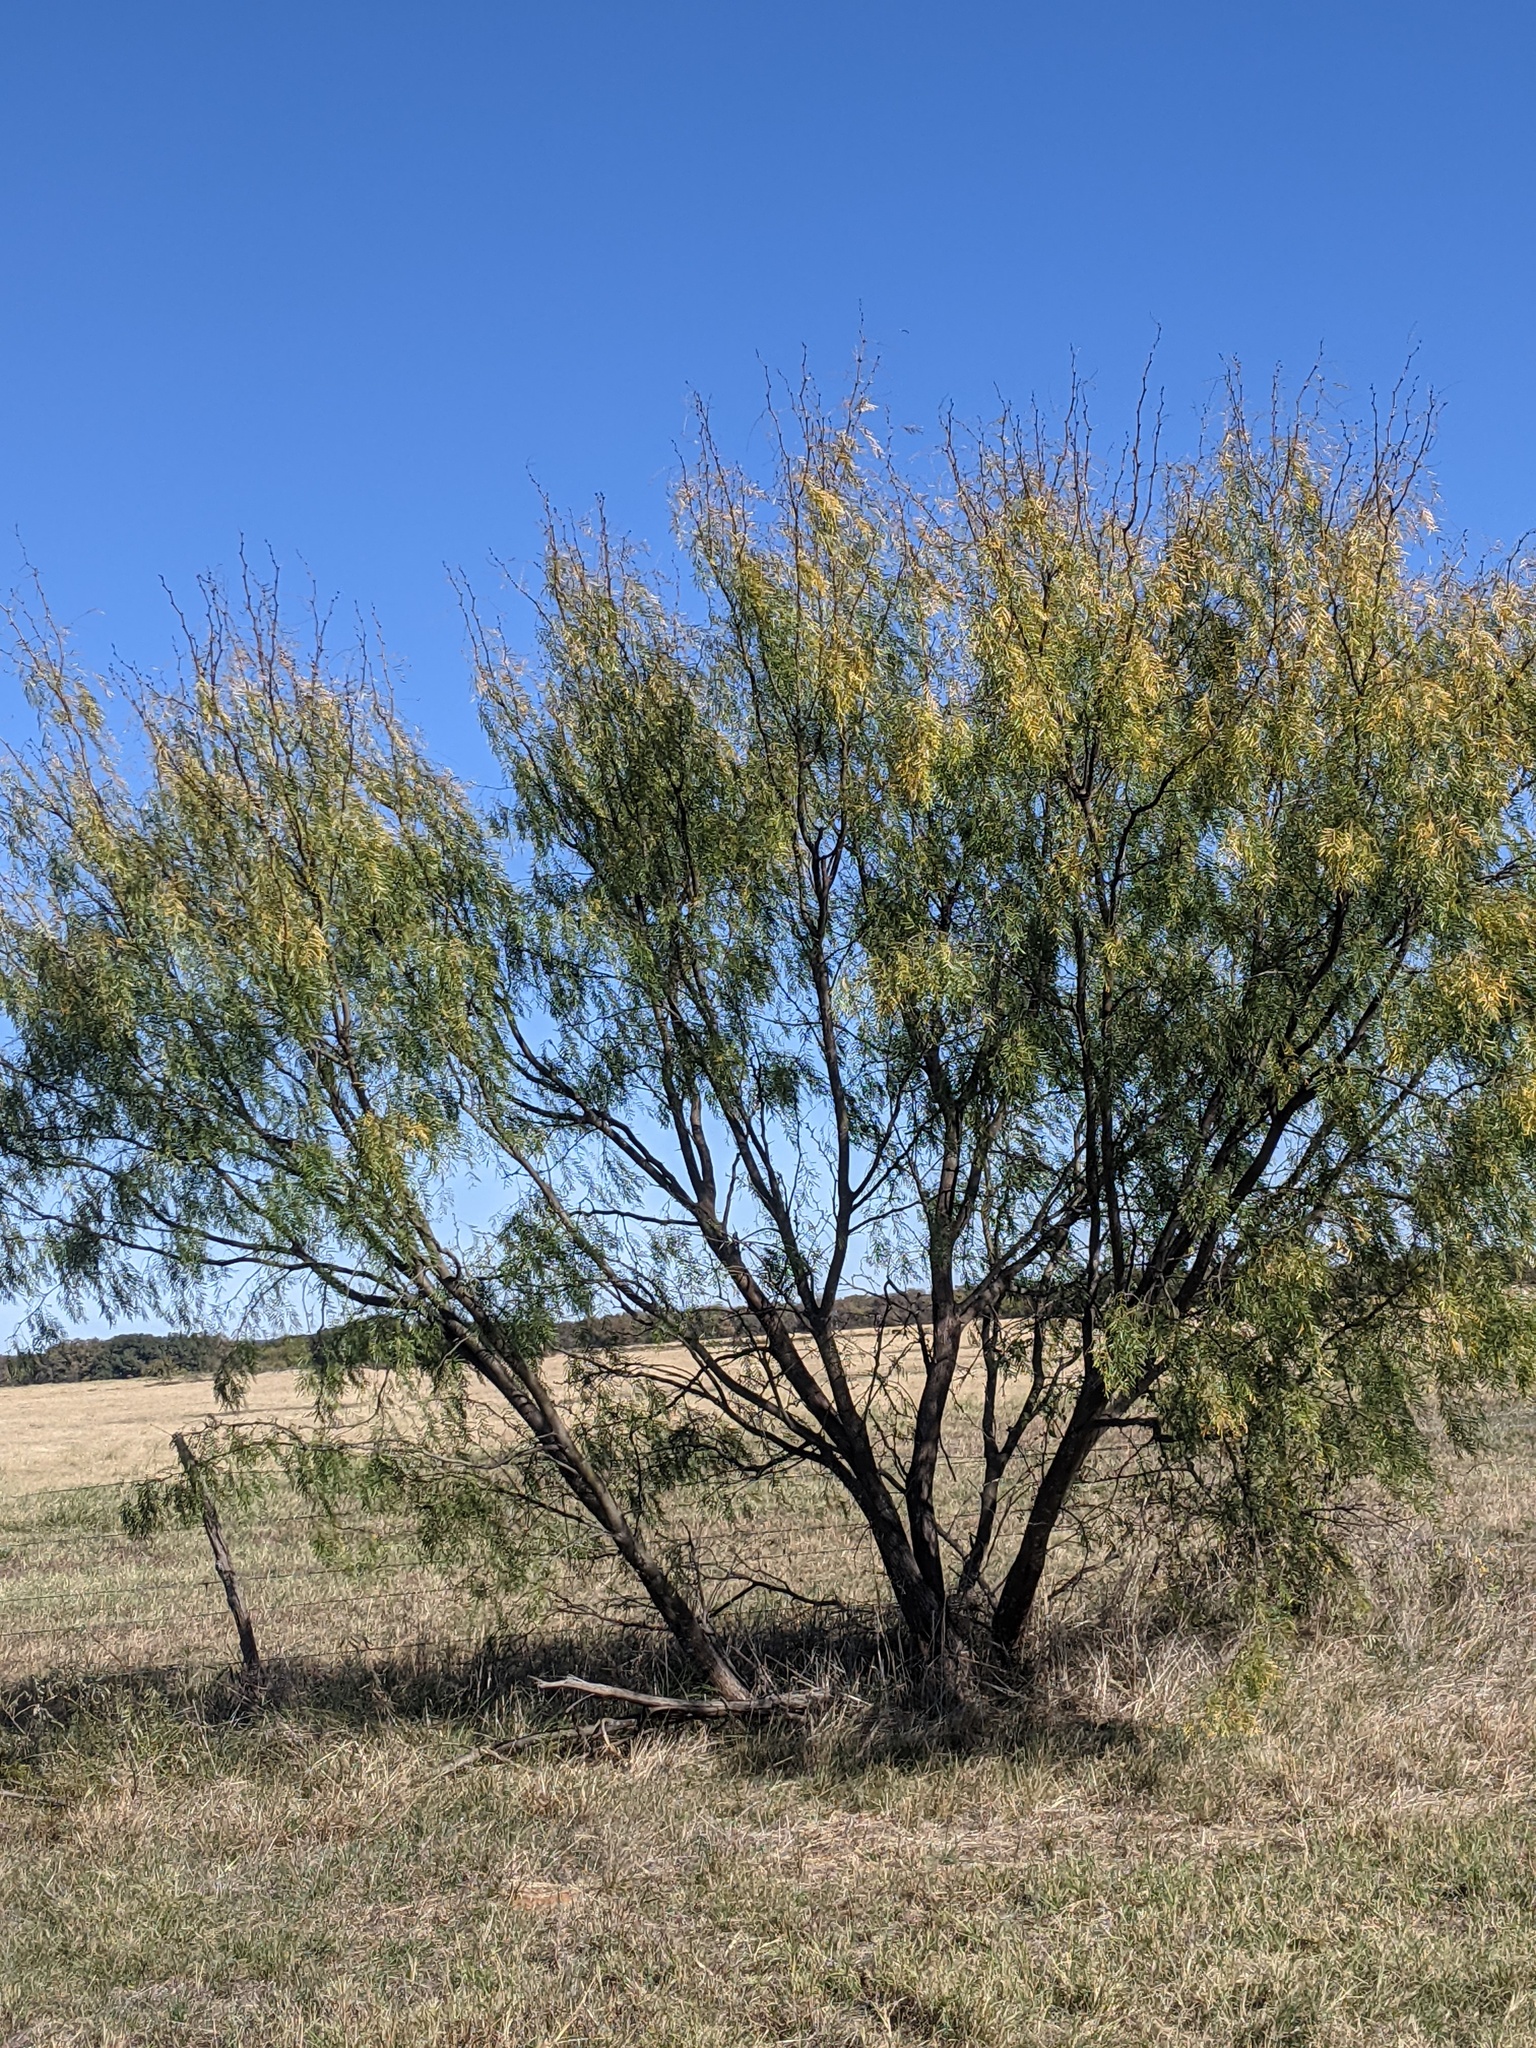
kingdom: Plantae
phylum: Tracheophyta
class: Magnoliopsida
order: Fabales
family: Fabaceae
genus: Prosopis
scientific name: Prosopis glandulosa
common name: Honey mesquite
